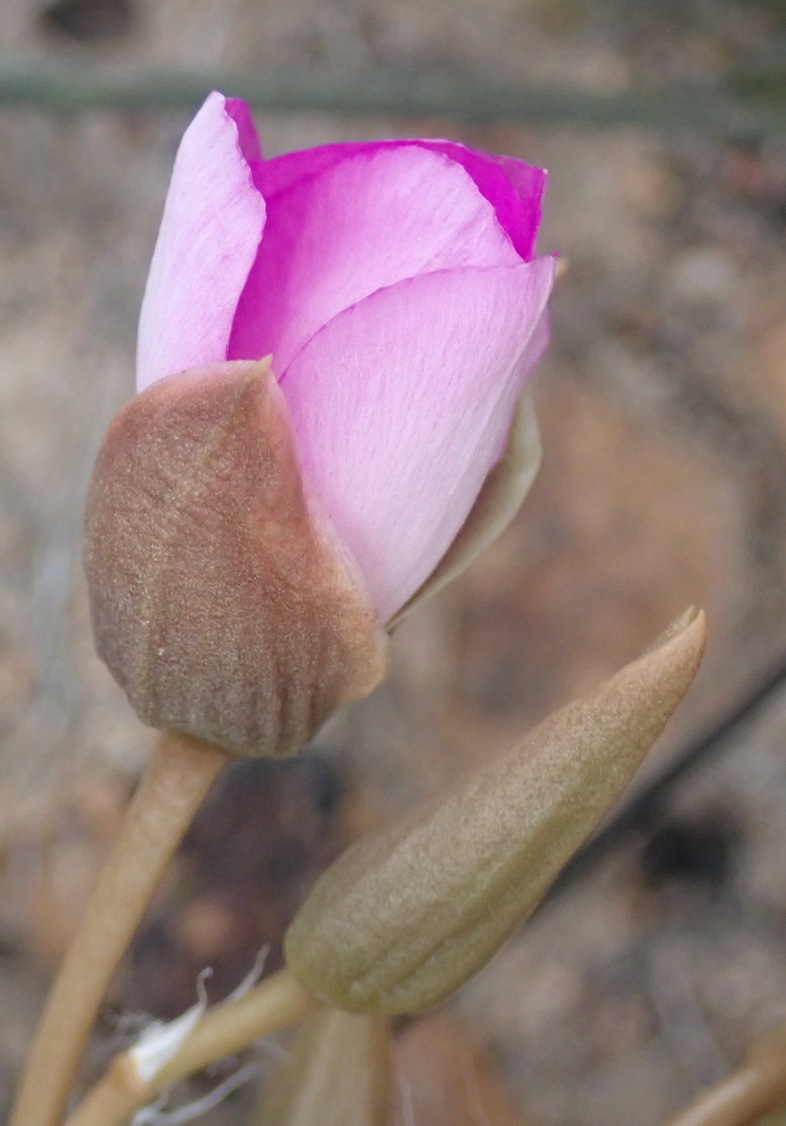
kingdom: Plantae
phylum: Tracheophyta
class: Magnoliopsida
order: Caryophyllales
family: Anacampserotaceae
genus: Anacampseros
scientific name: Anacampseros lanceolata
